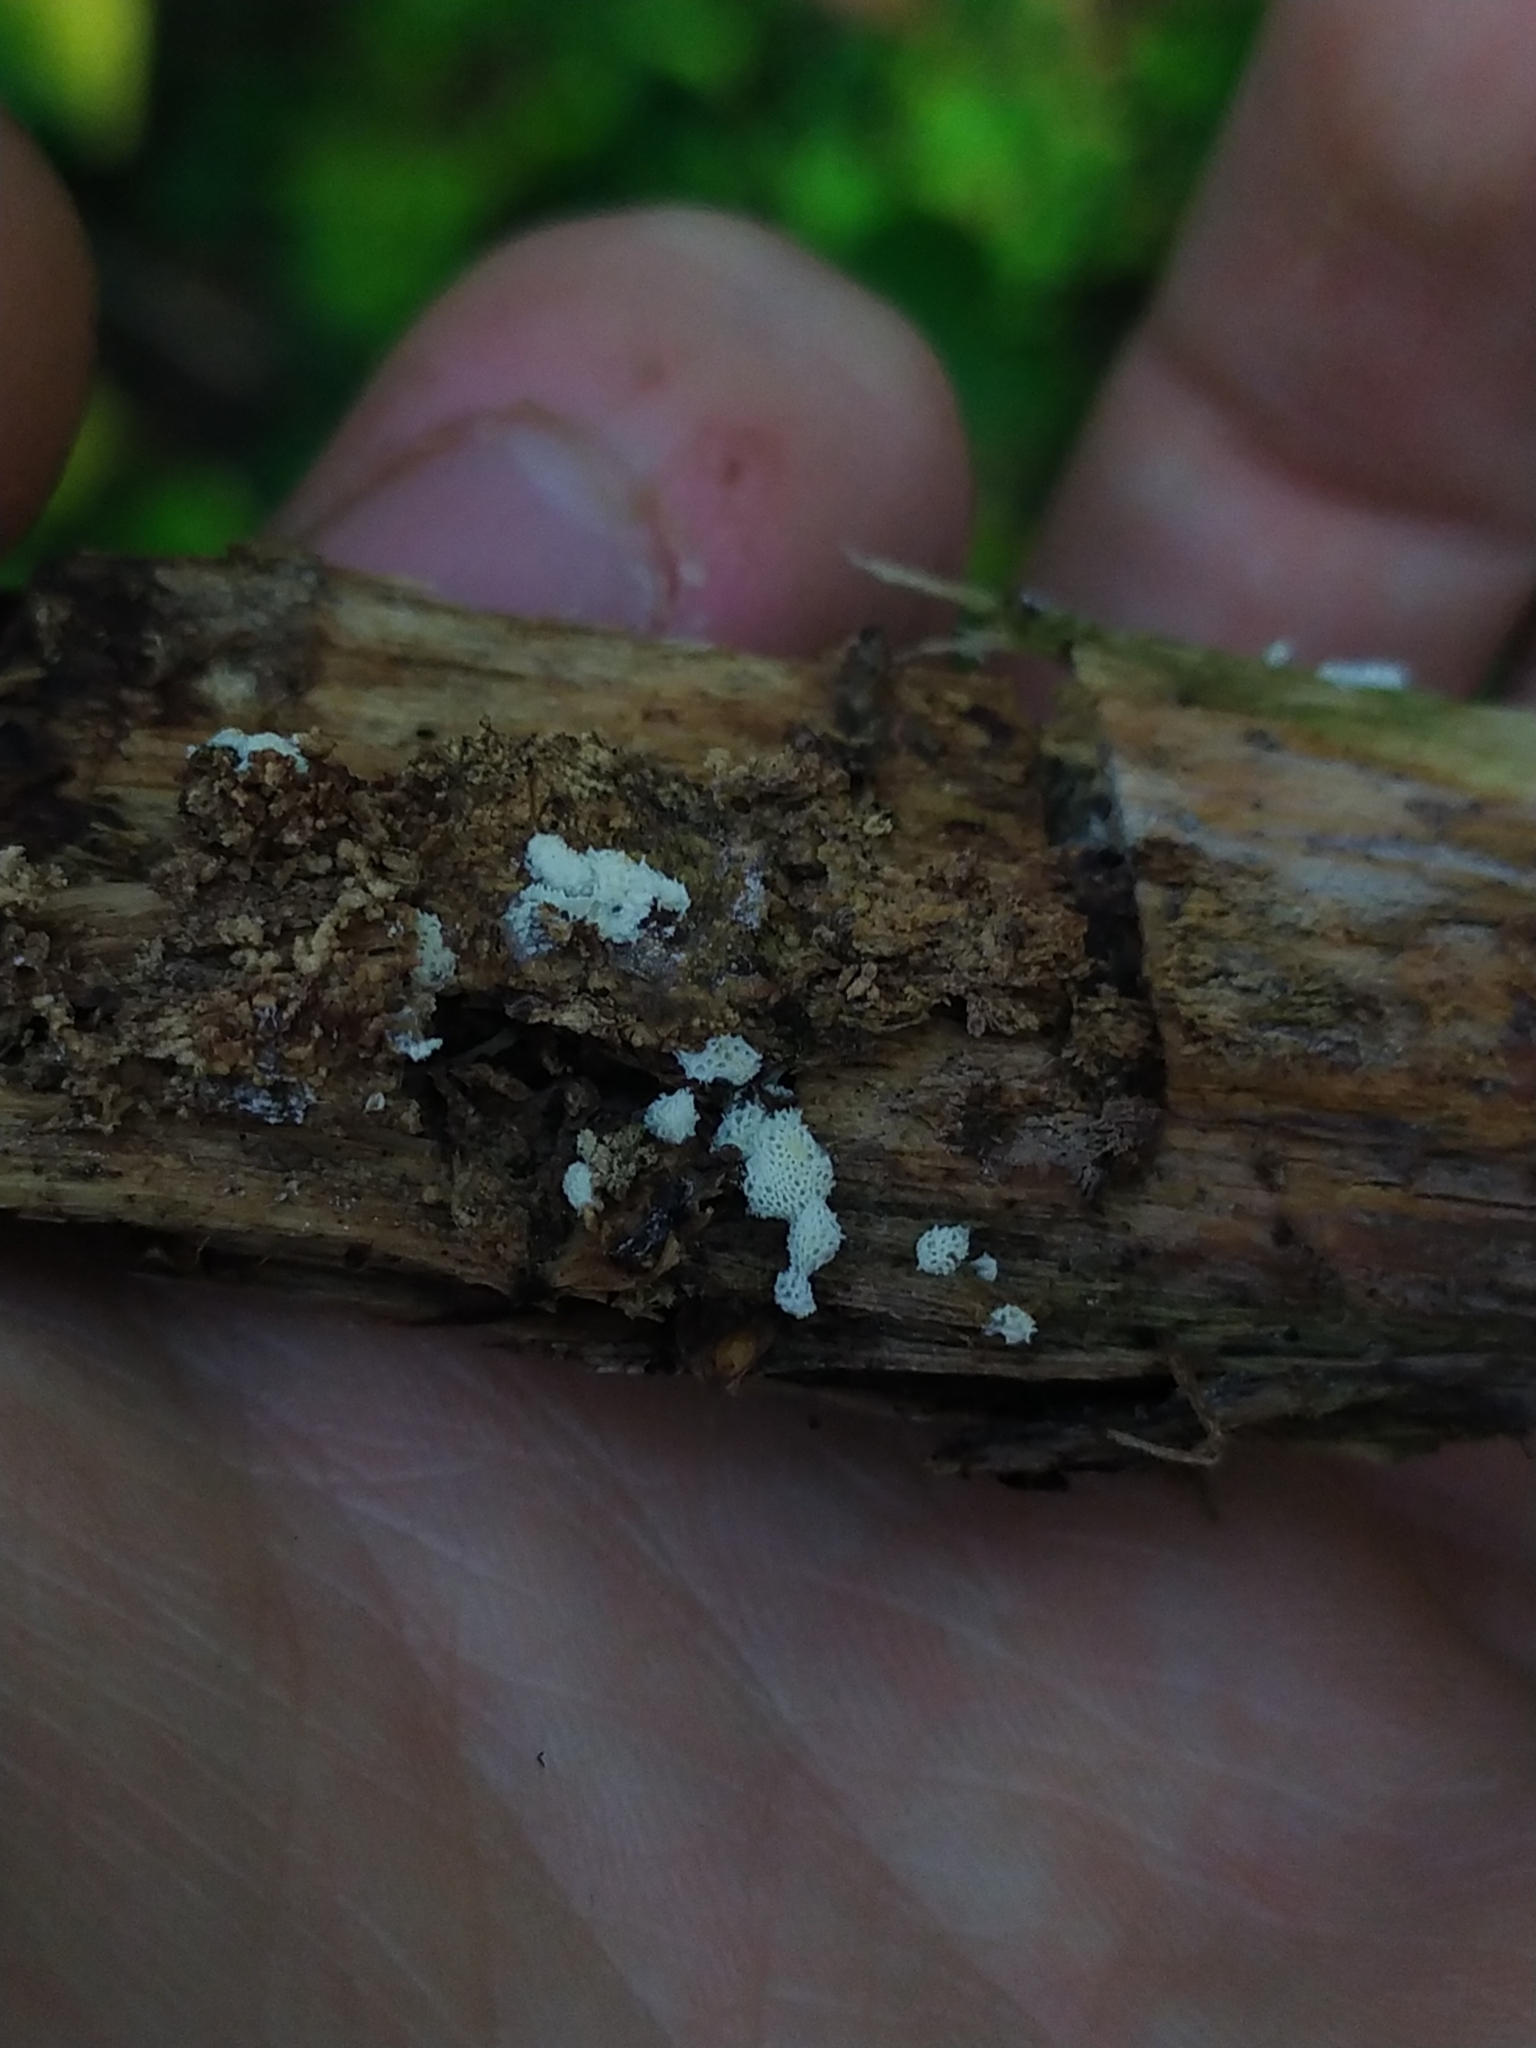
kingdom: Protozoa
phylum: Mycetozoa
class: Protosteliomycetes
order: Ceratiomyxales
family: Ceratiomyxaceae
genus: Ceratiomyxa
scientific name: Ceratiomyxa fruticulosa
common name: Honeycomb coral slime mold
